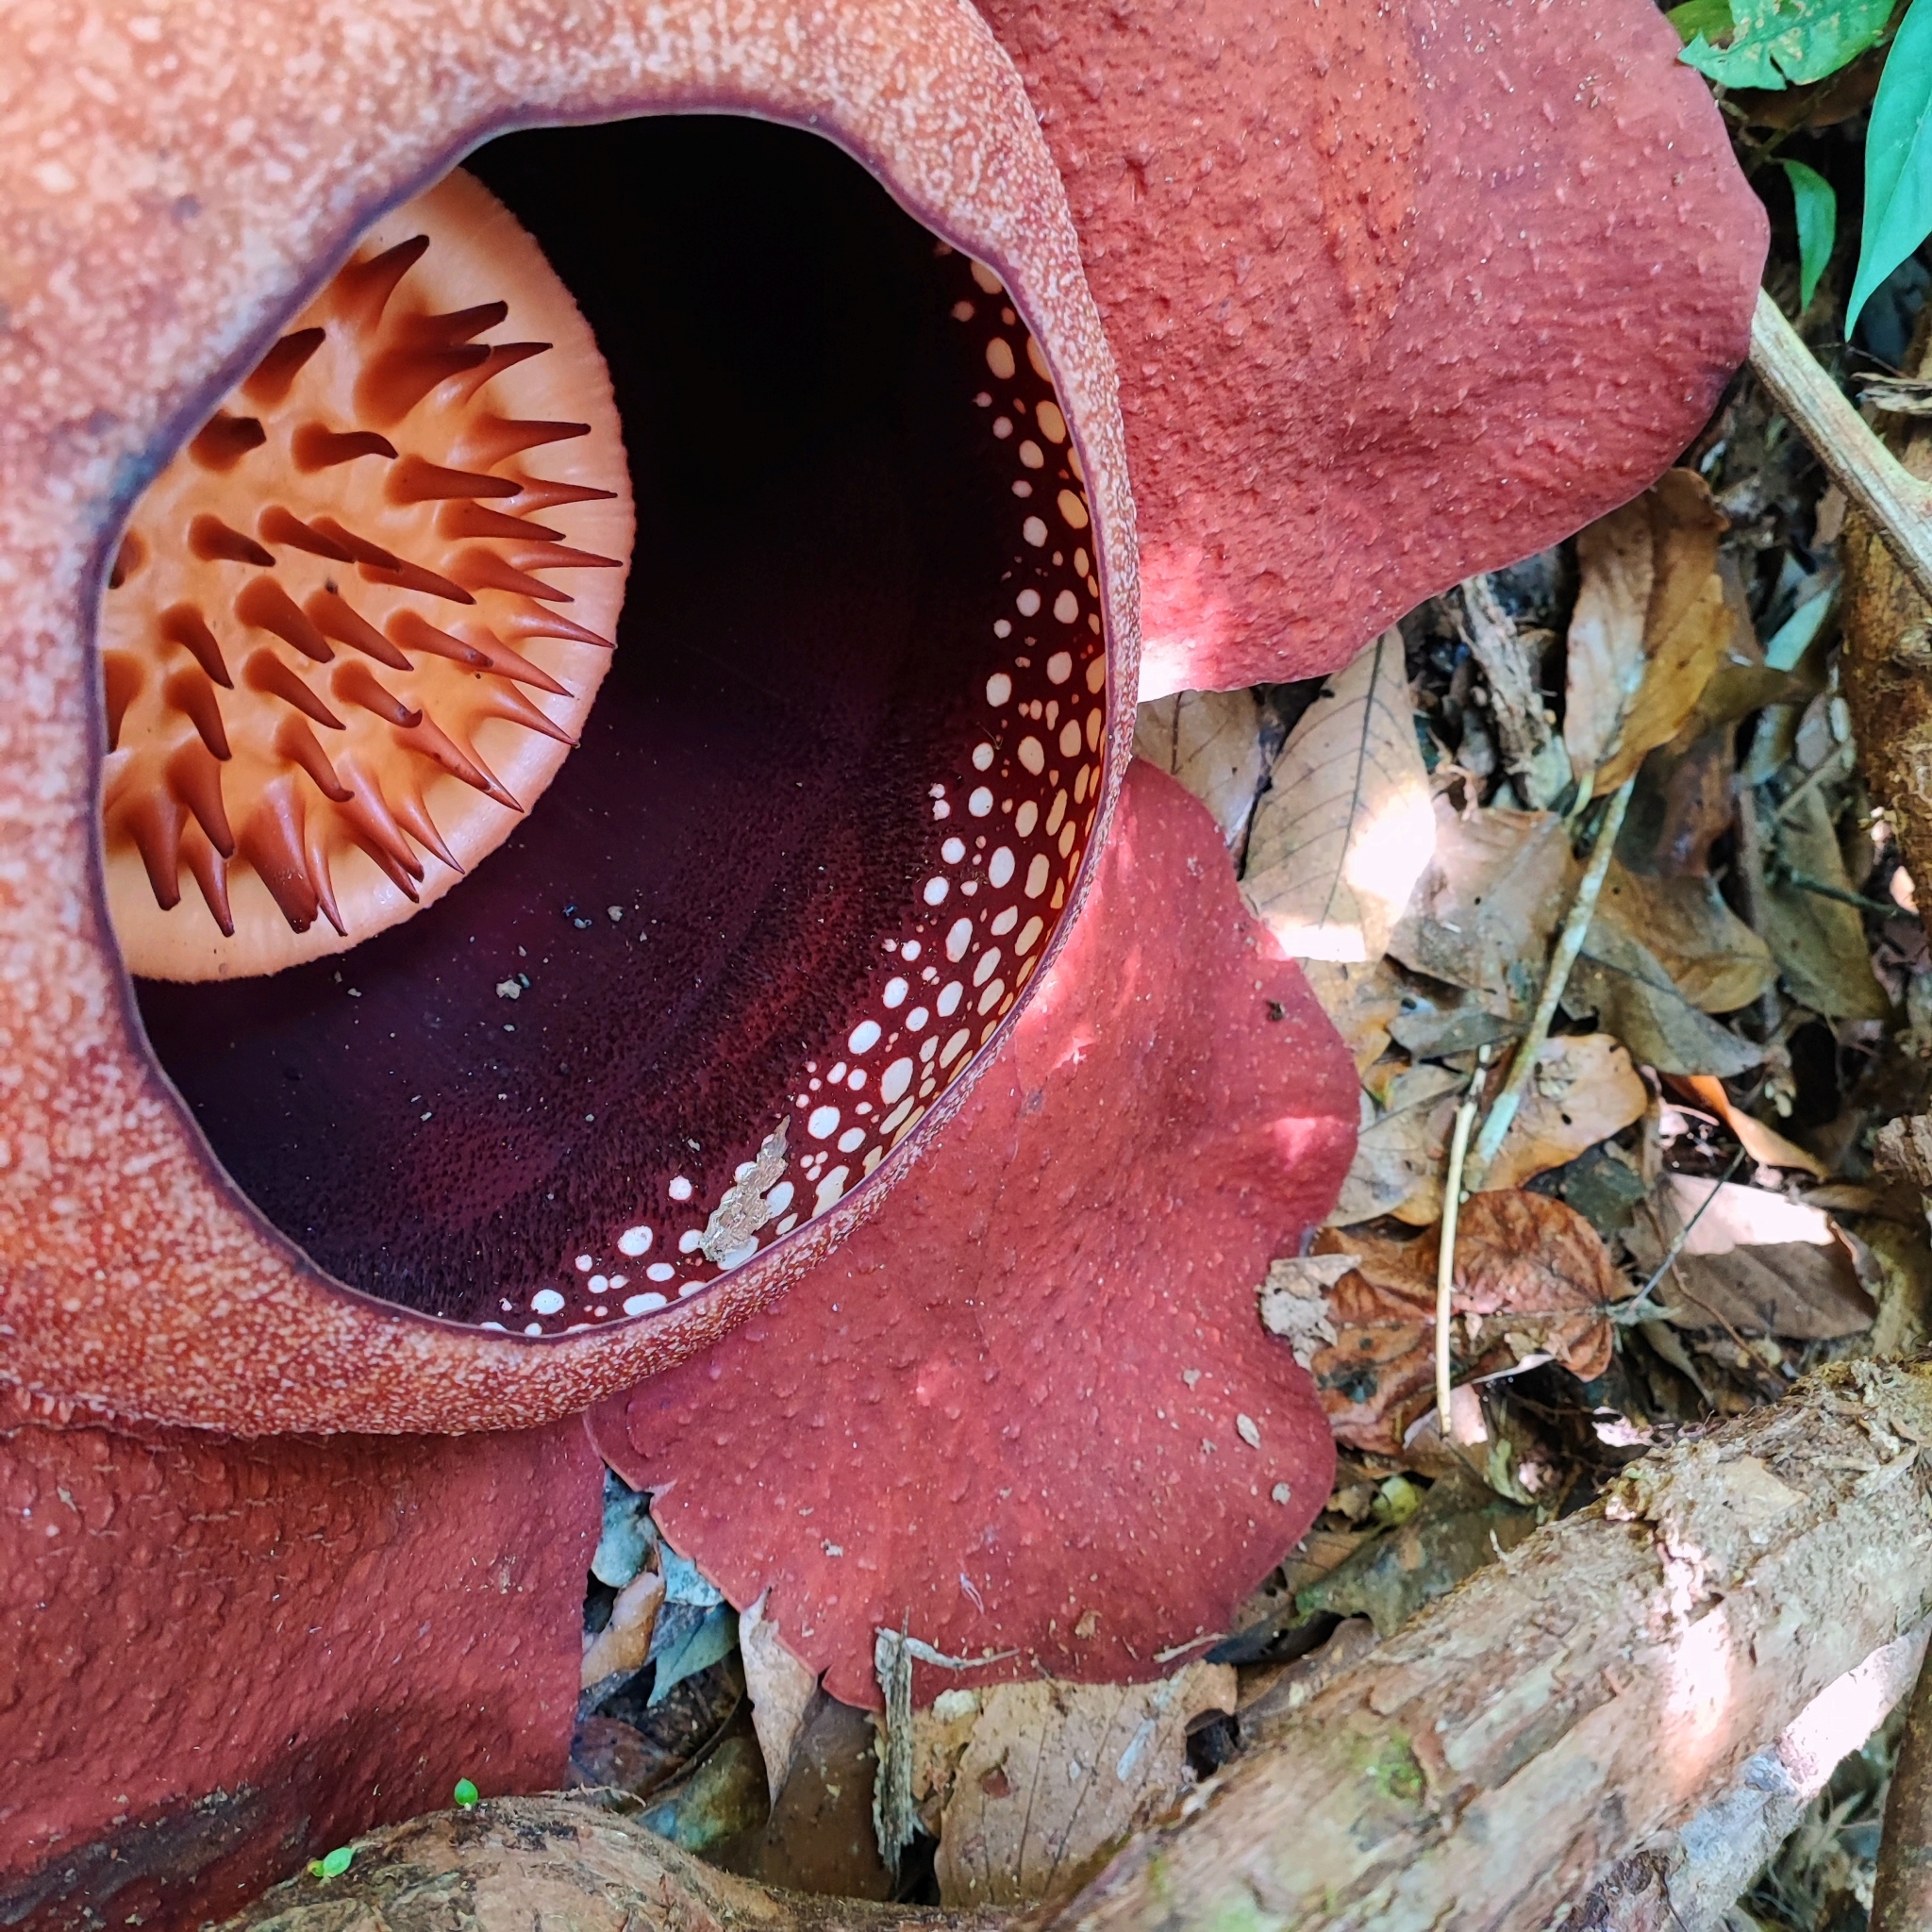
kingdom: Plantae
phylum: Tracheophyta
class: Magnoliopsida
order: Malpighiales
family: Rafflesiaceae
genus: Rafflesia
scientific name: Rafflesia kerrii
